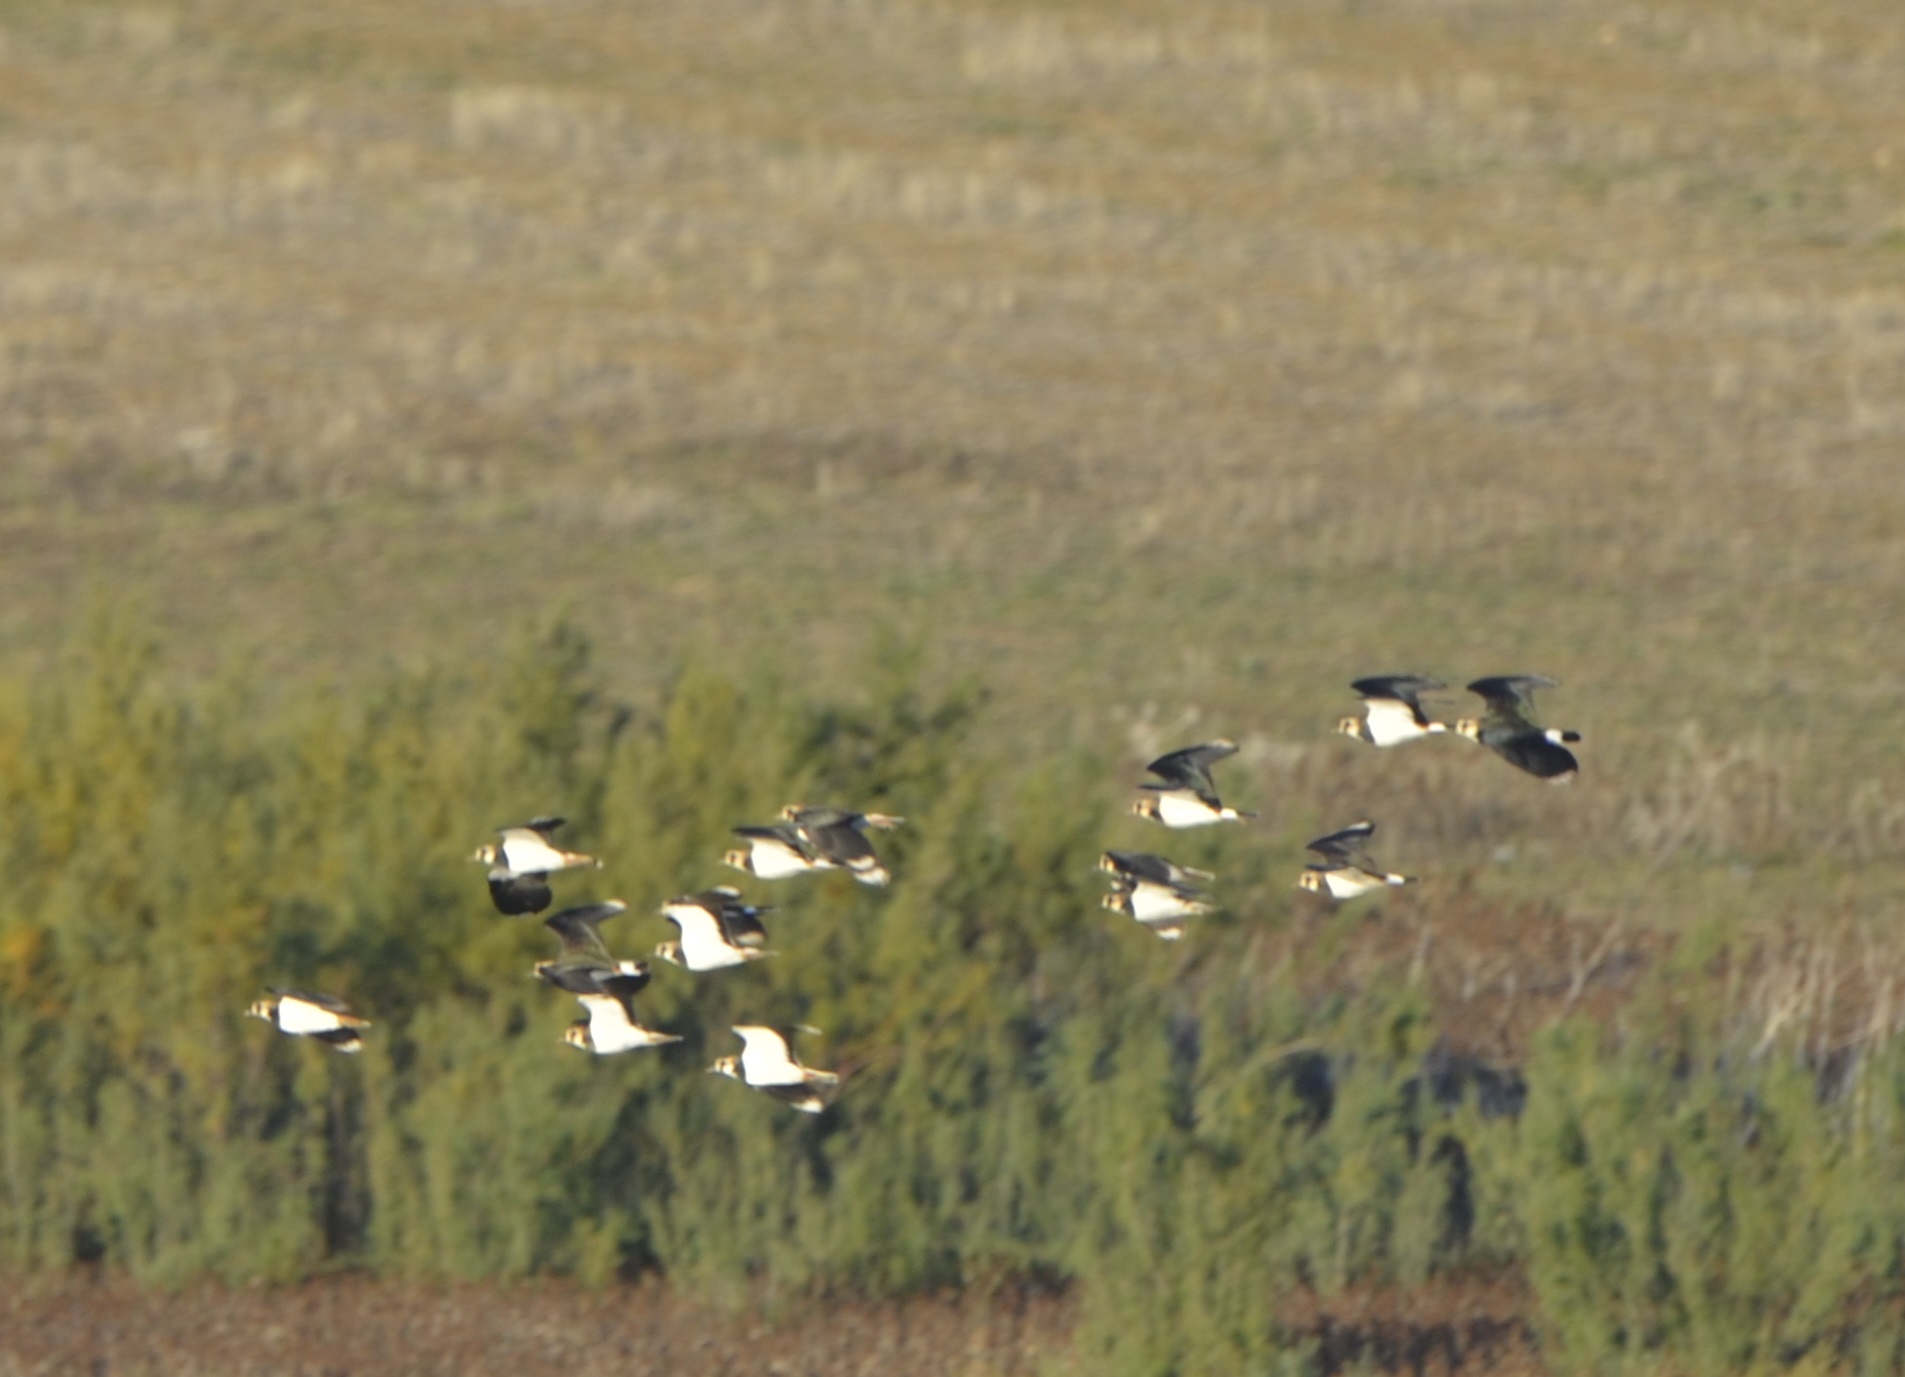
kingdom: Animalia
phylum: Chordata
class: Aves
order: Charadriiformes
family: Charadriidae
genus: Vanellus
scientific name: Vanellus vanellus
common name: Northern lapwing
